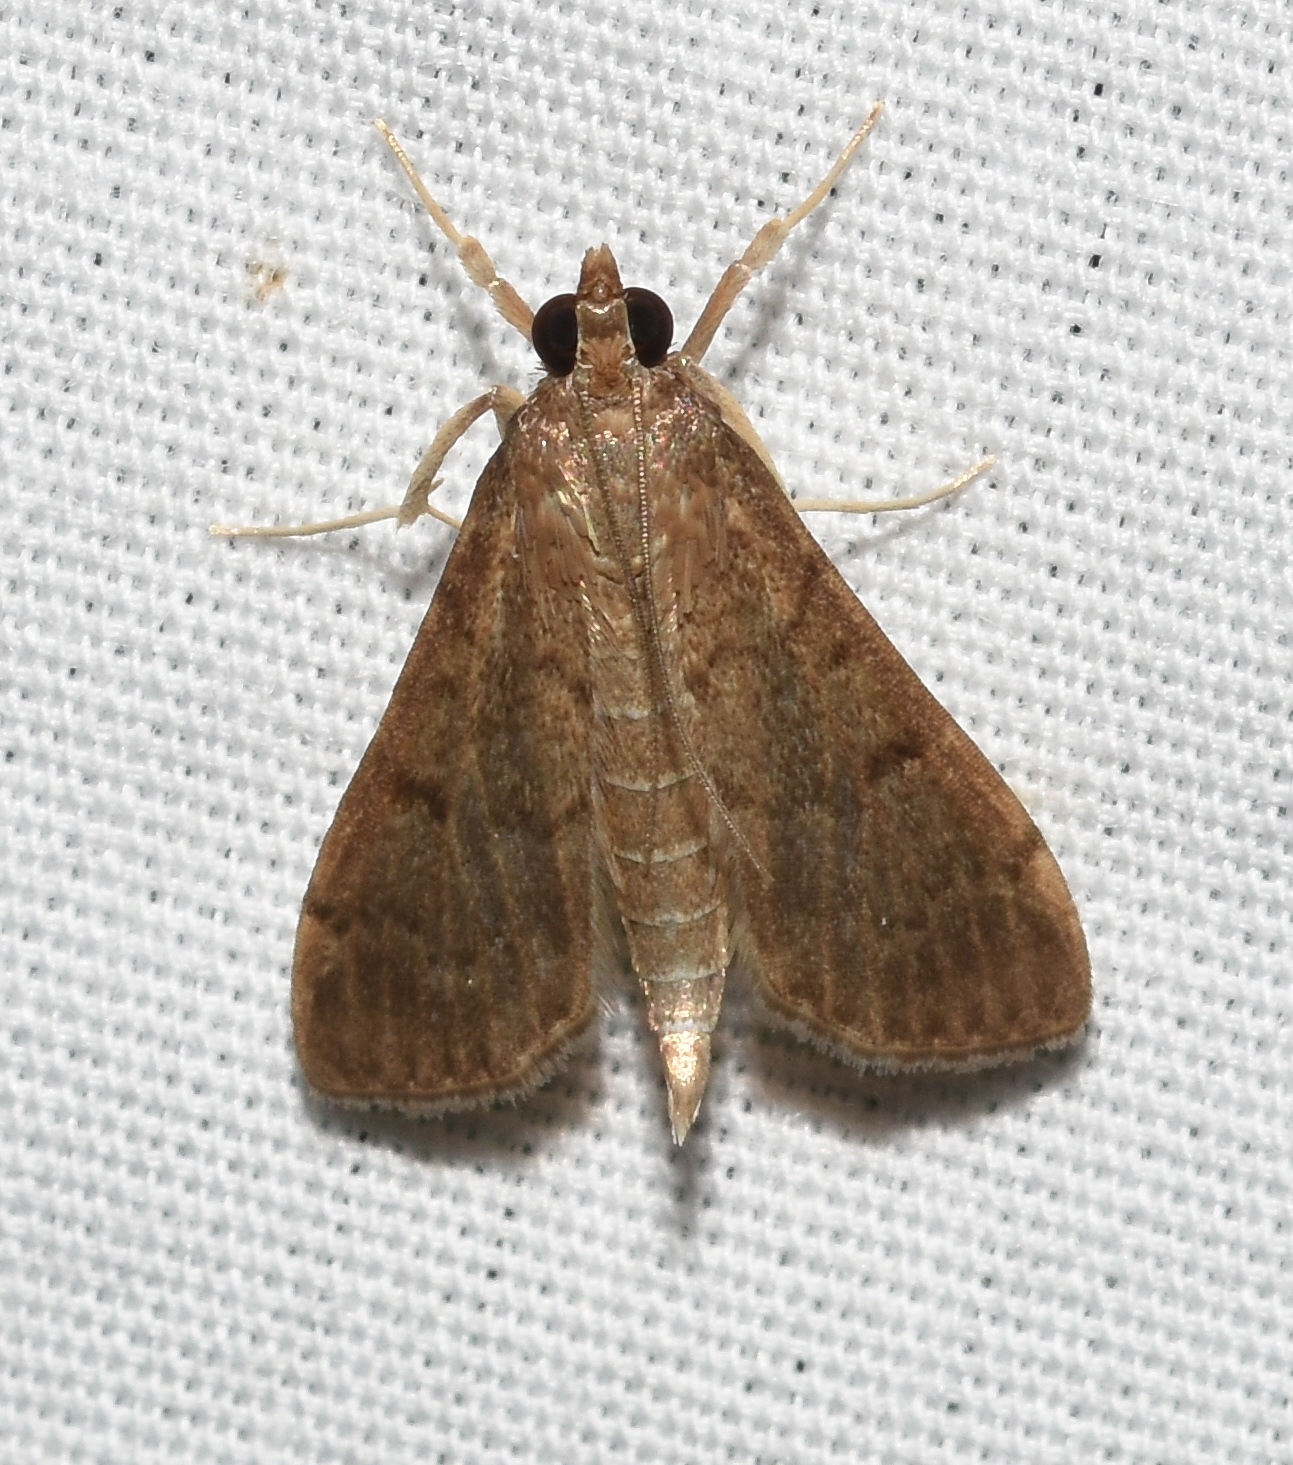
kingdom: Animalia
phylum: Arthropoda
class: Insecta
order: Lepidoptera
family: Crambidae
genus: Herpetogramma
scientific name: Herpetogramma phaeopteralis
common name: Dusky herpetogramma moth
